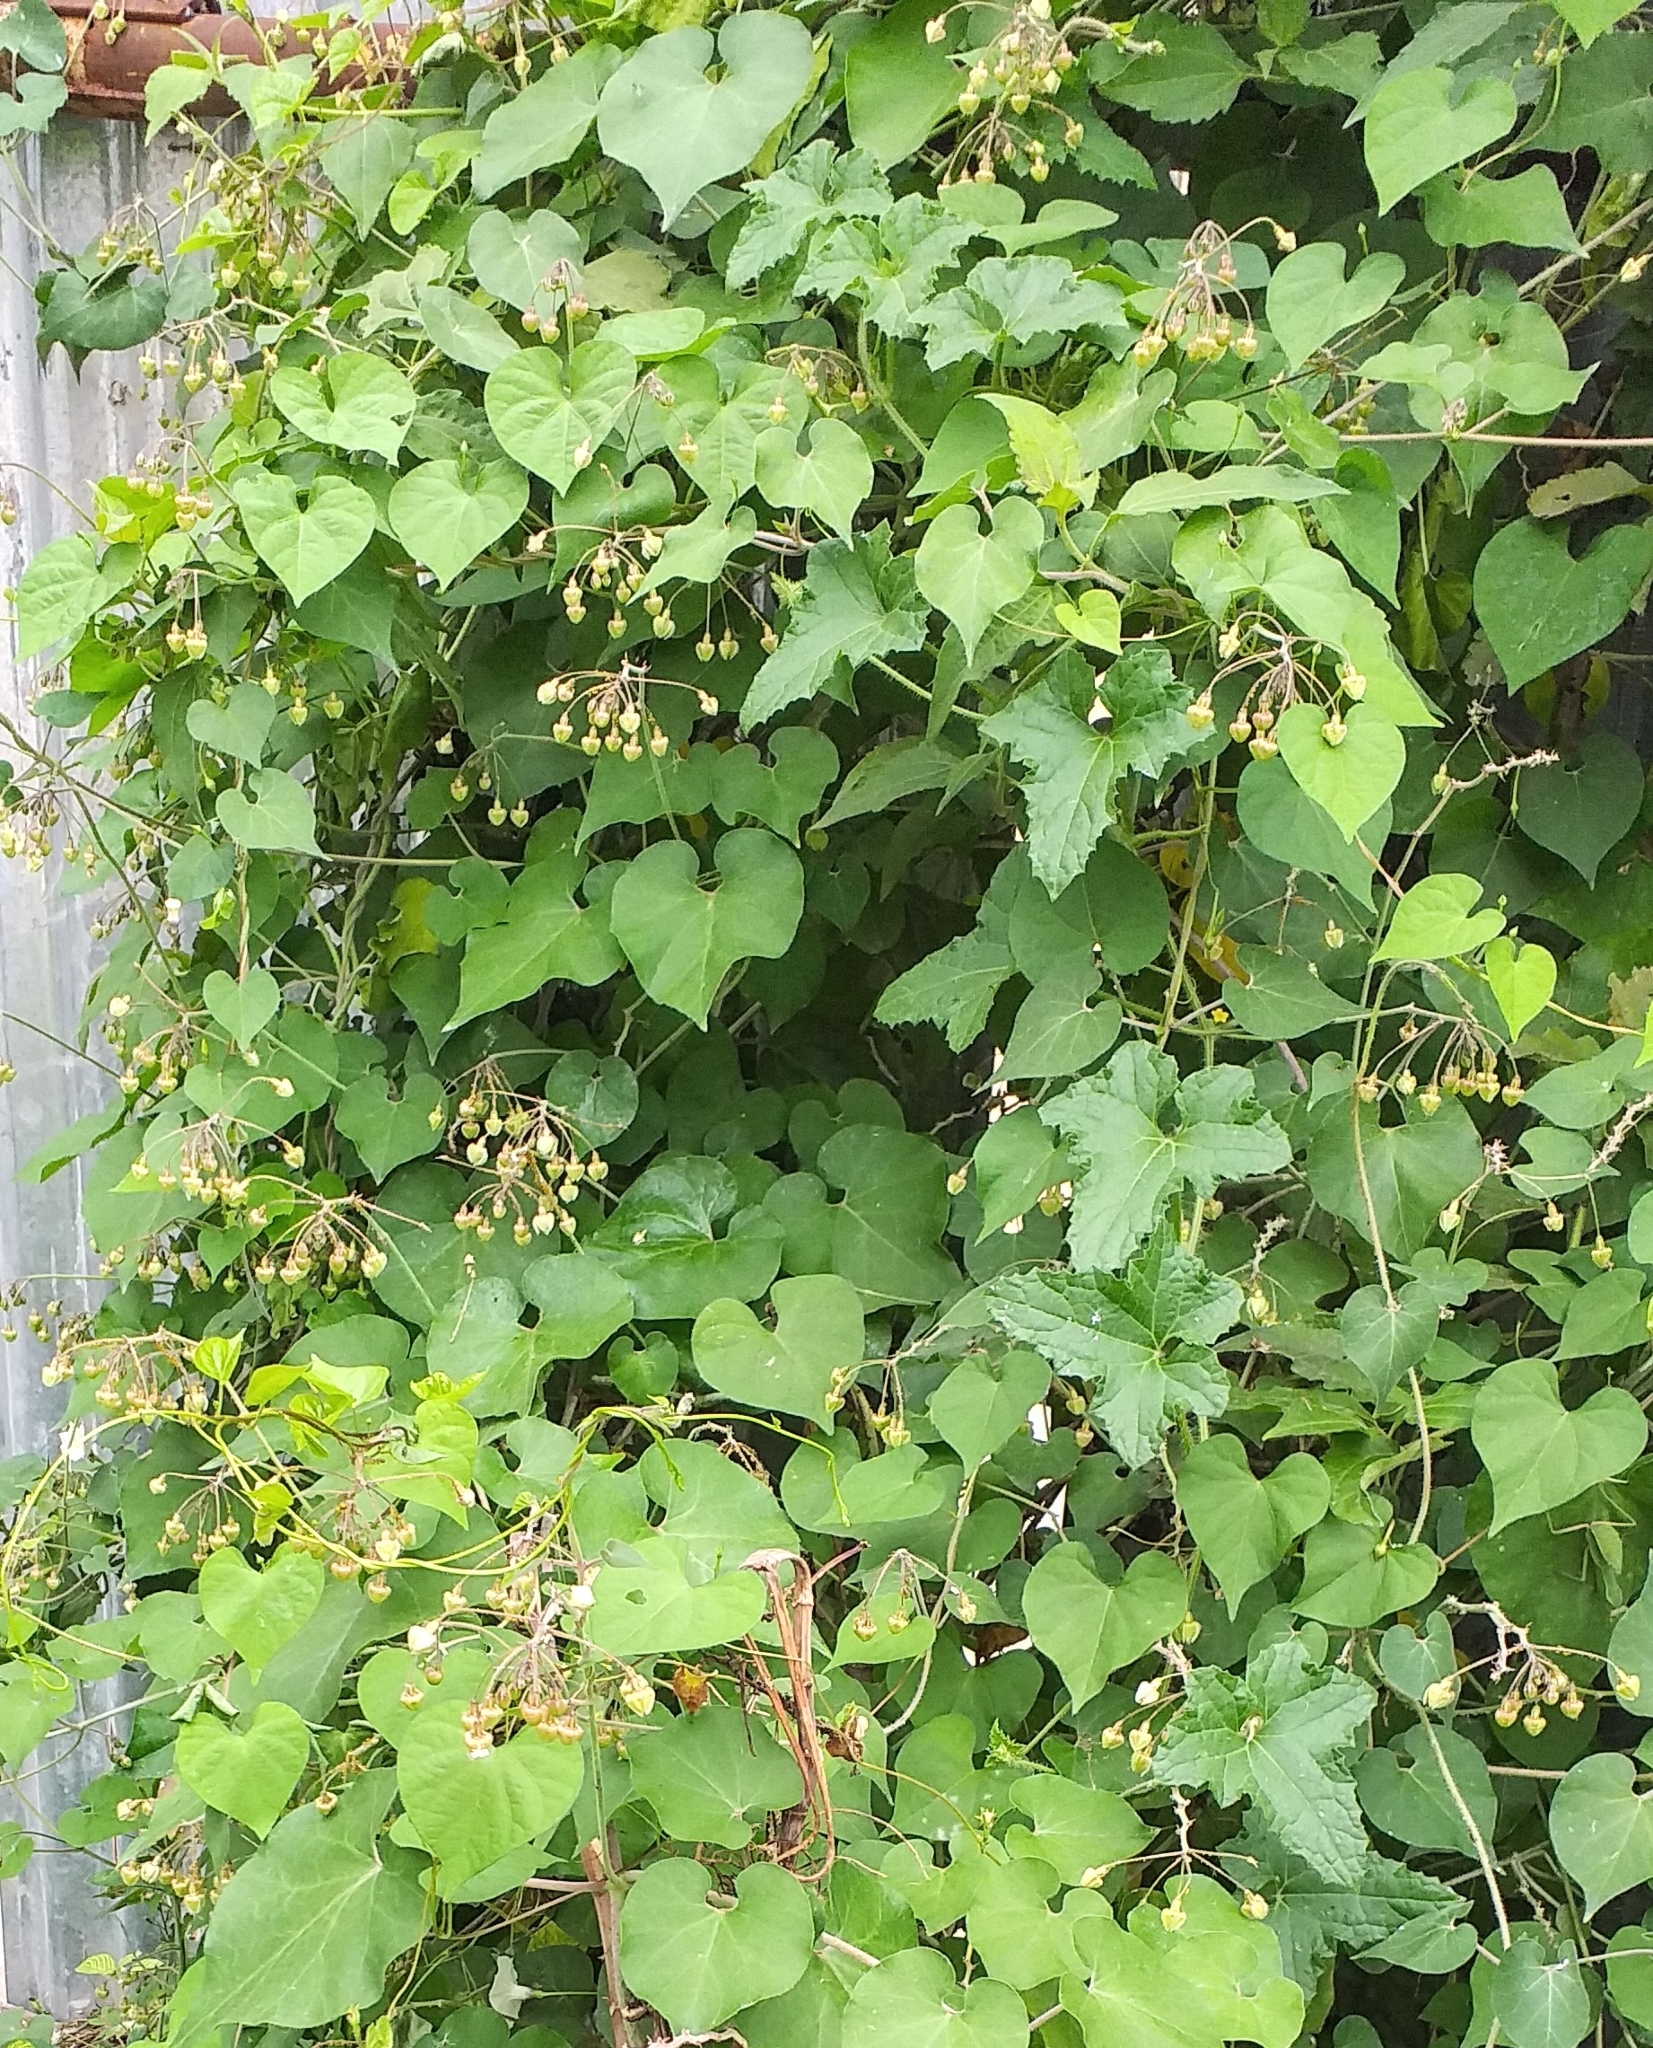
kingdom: Plantae
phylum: Tracheophyta
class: Magnoliopsida
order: Gentianales
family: Apocynaceae
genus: Pergularia
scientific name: Pergularia daemia
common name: Trellis-vine
